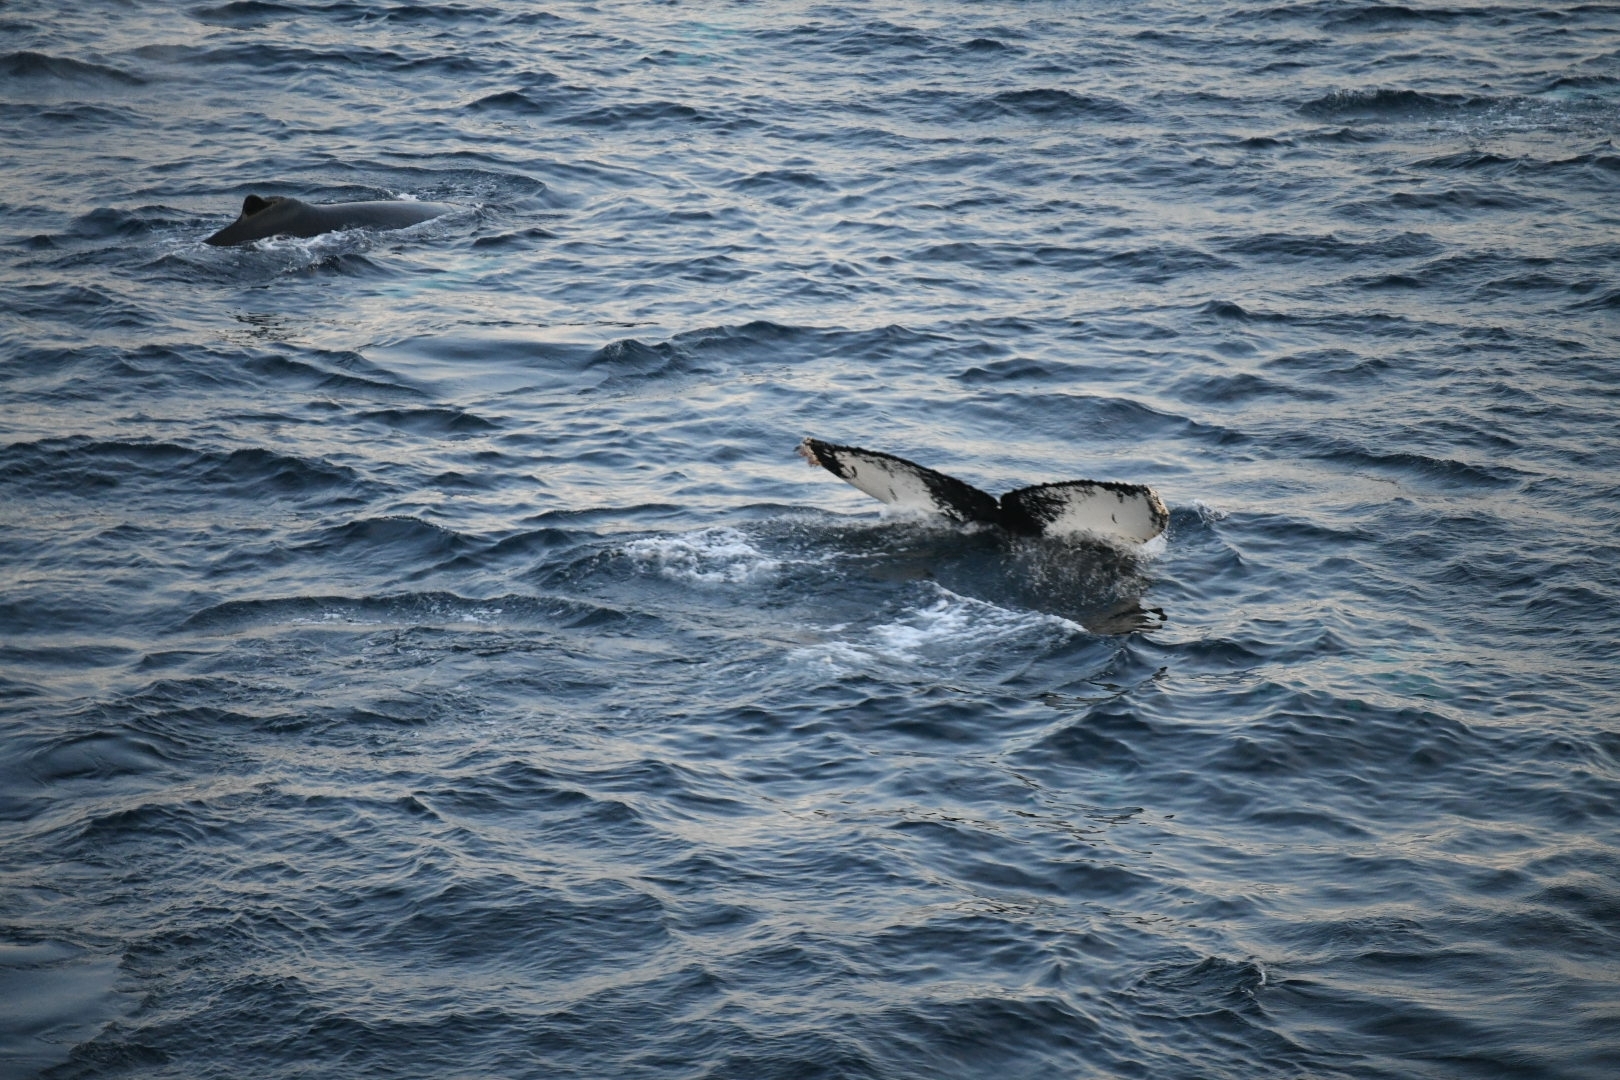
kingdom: Animalia
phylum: Chordata
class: Mammalia
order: Cetacea
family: Balaenopteridae
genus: Megaptera
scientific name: Megaptera novaeangliae
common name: Humpback whale
